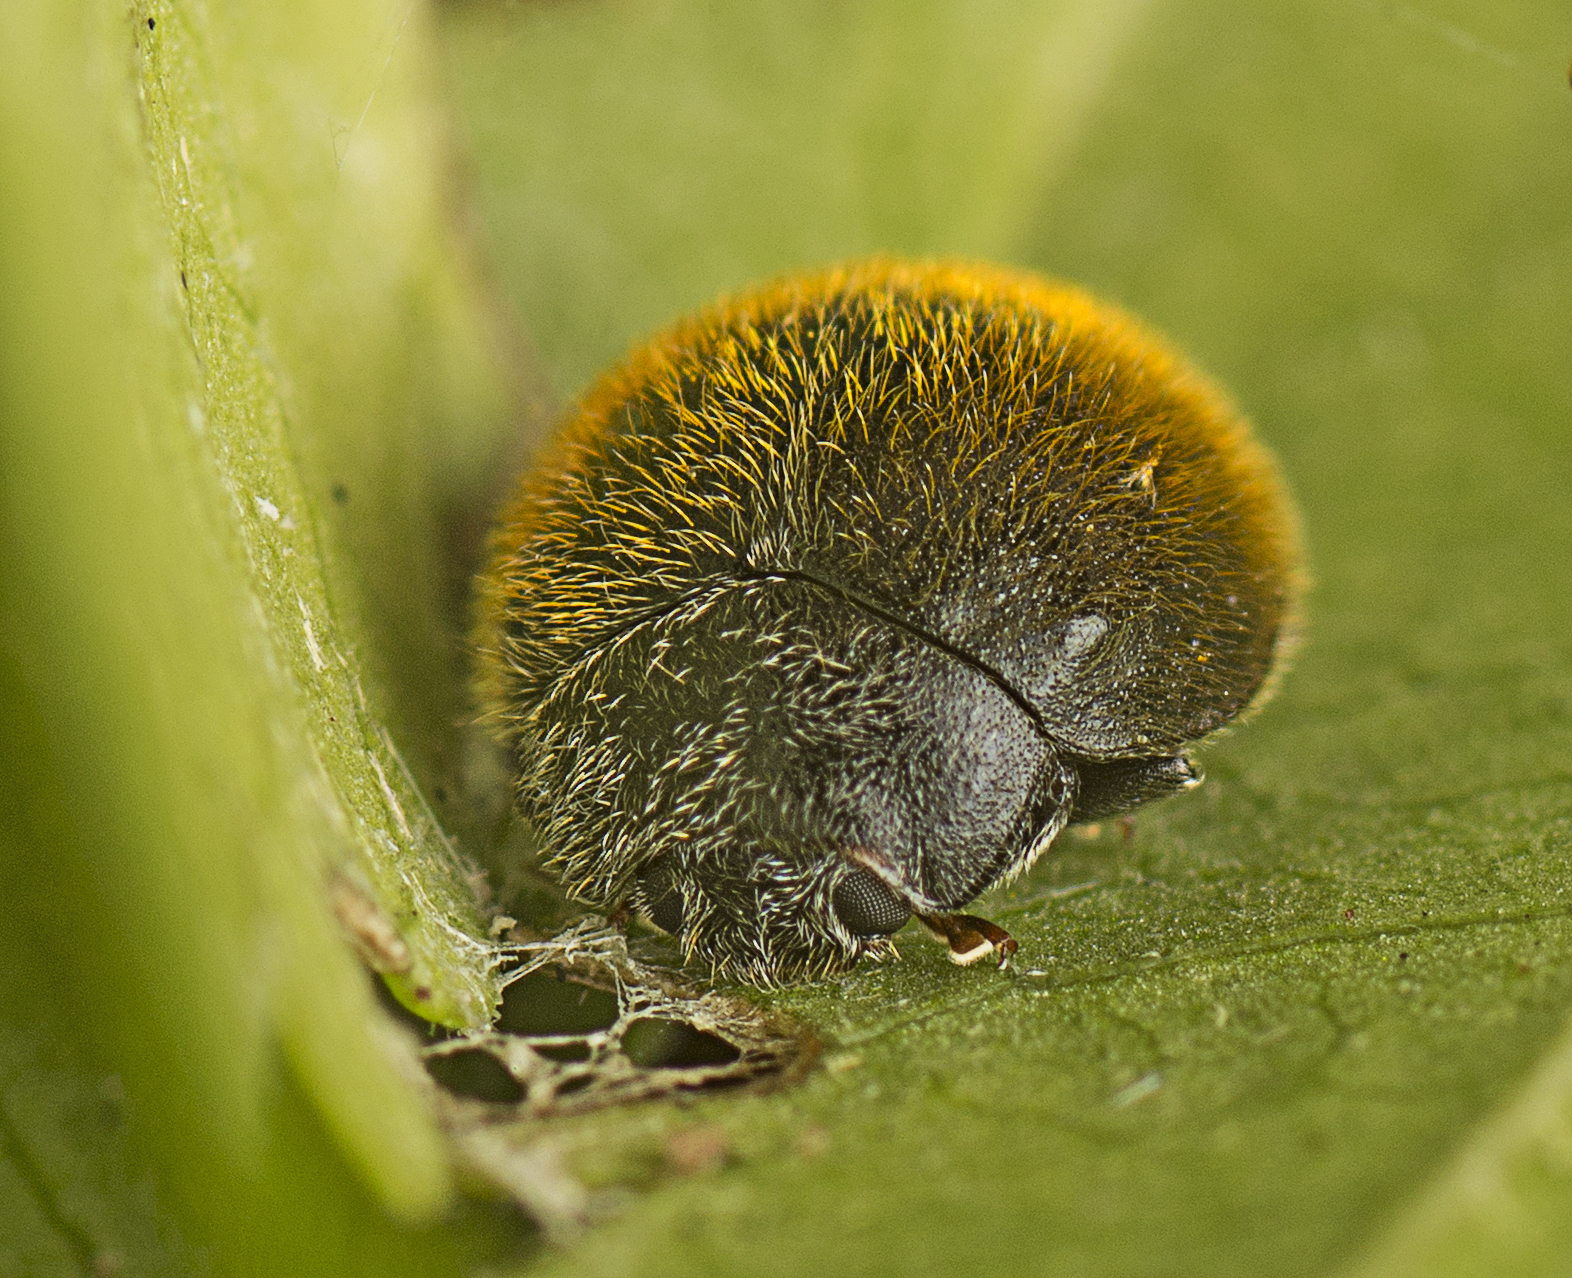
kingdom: Animalia
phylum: Arthropoda
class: Insecta
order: Coleoptera
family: Coccinellidae
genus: Erithionyx
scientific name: Erithionyx
